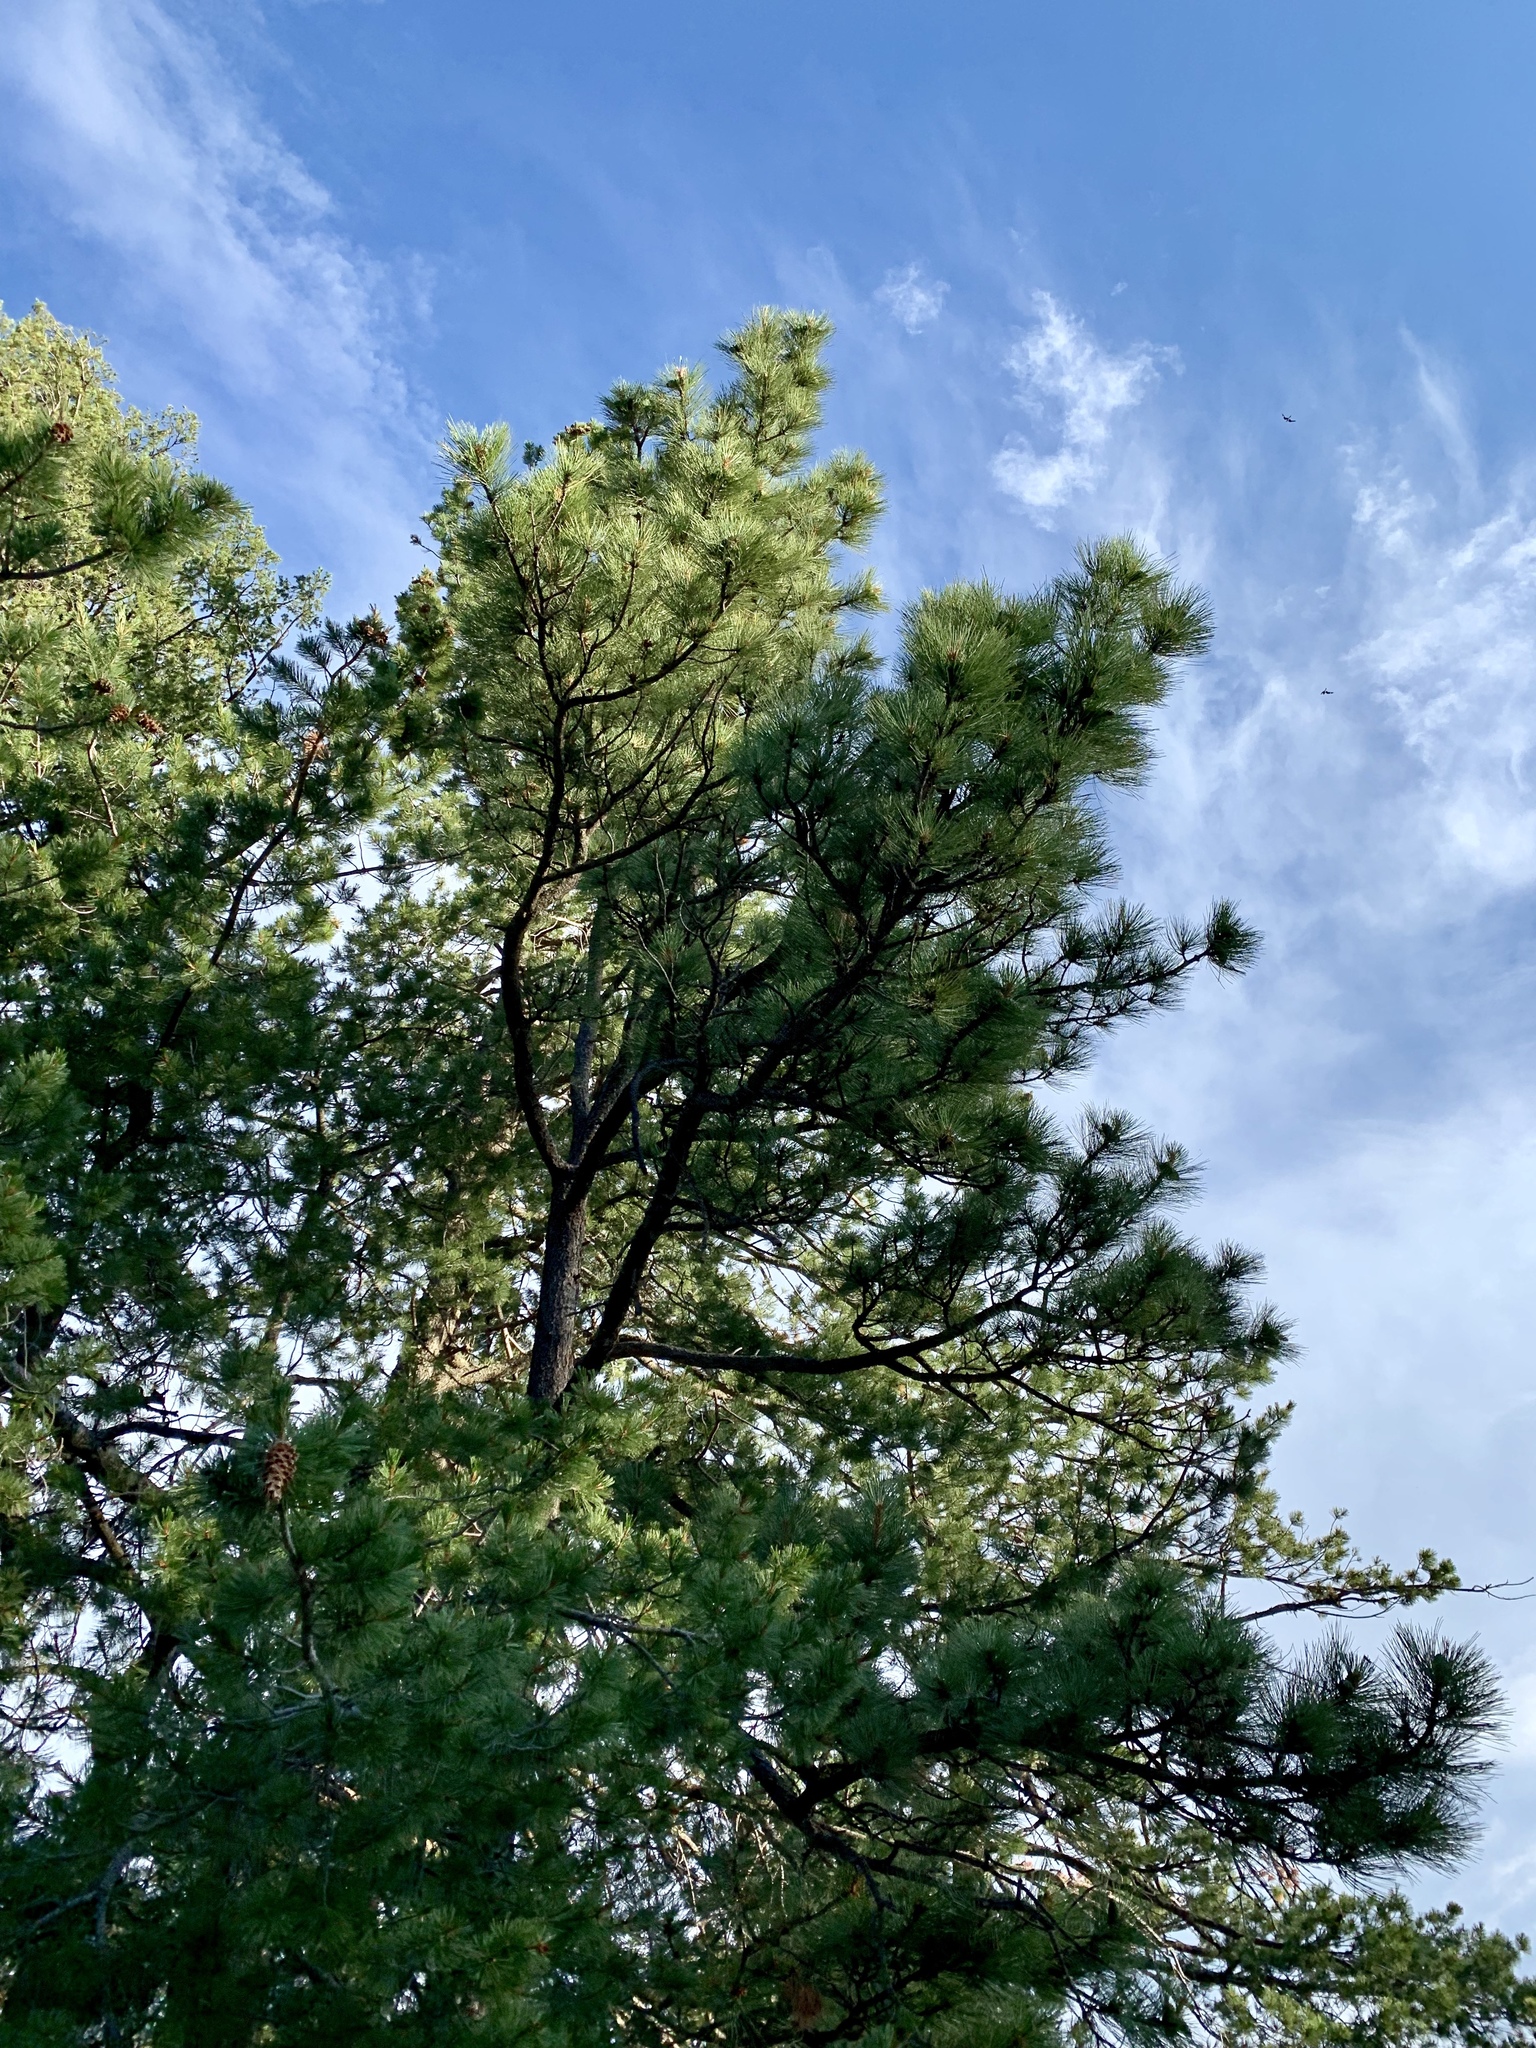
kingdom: Plantae
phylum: Tracheophyta
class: Pinopsida
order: Pinales
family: Pinaceae
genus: Pinus
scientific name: Pinus ponderosa
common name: Western yellow-pine
